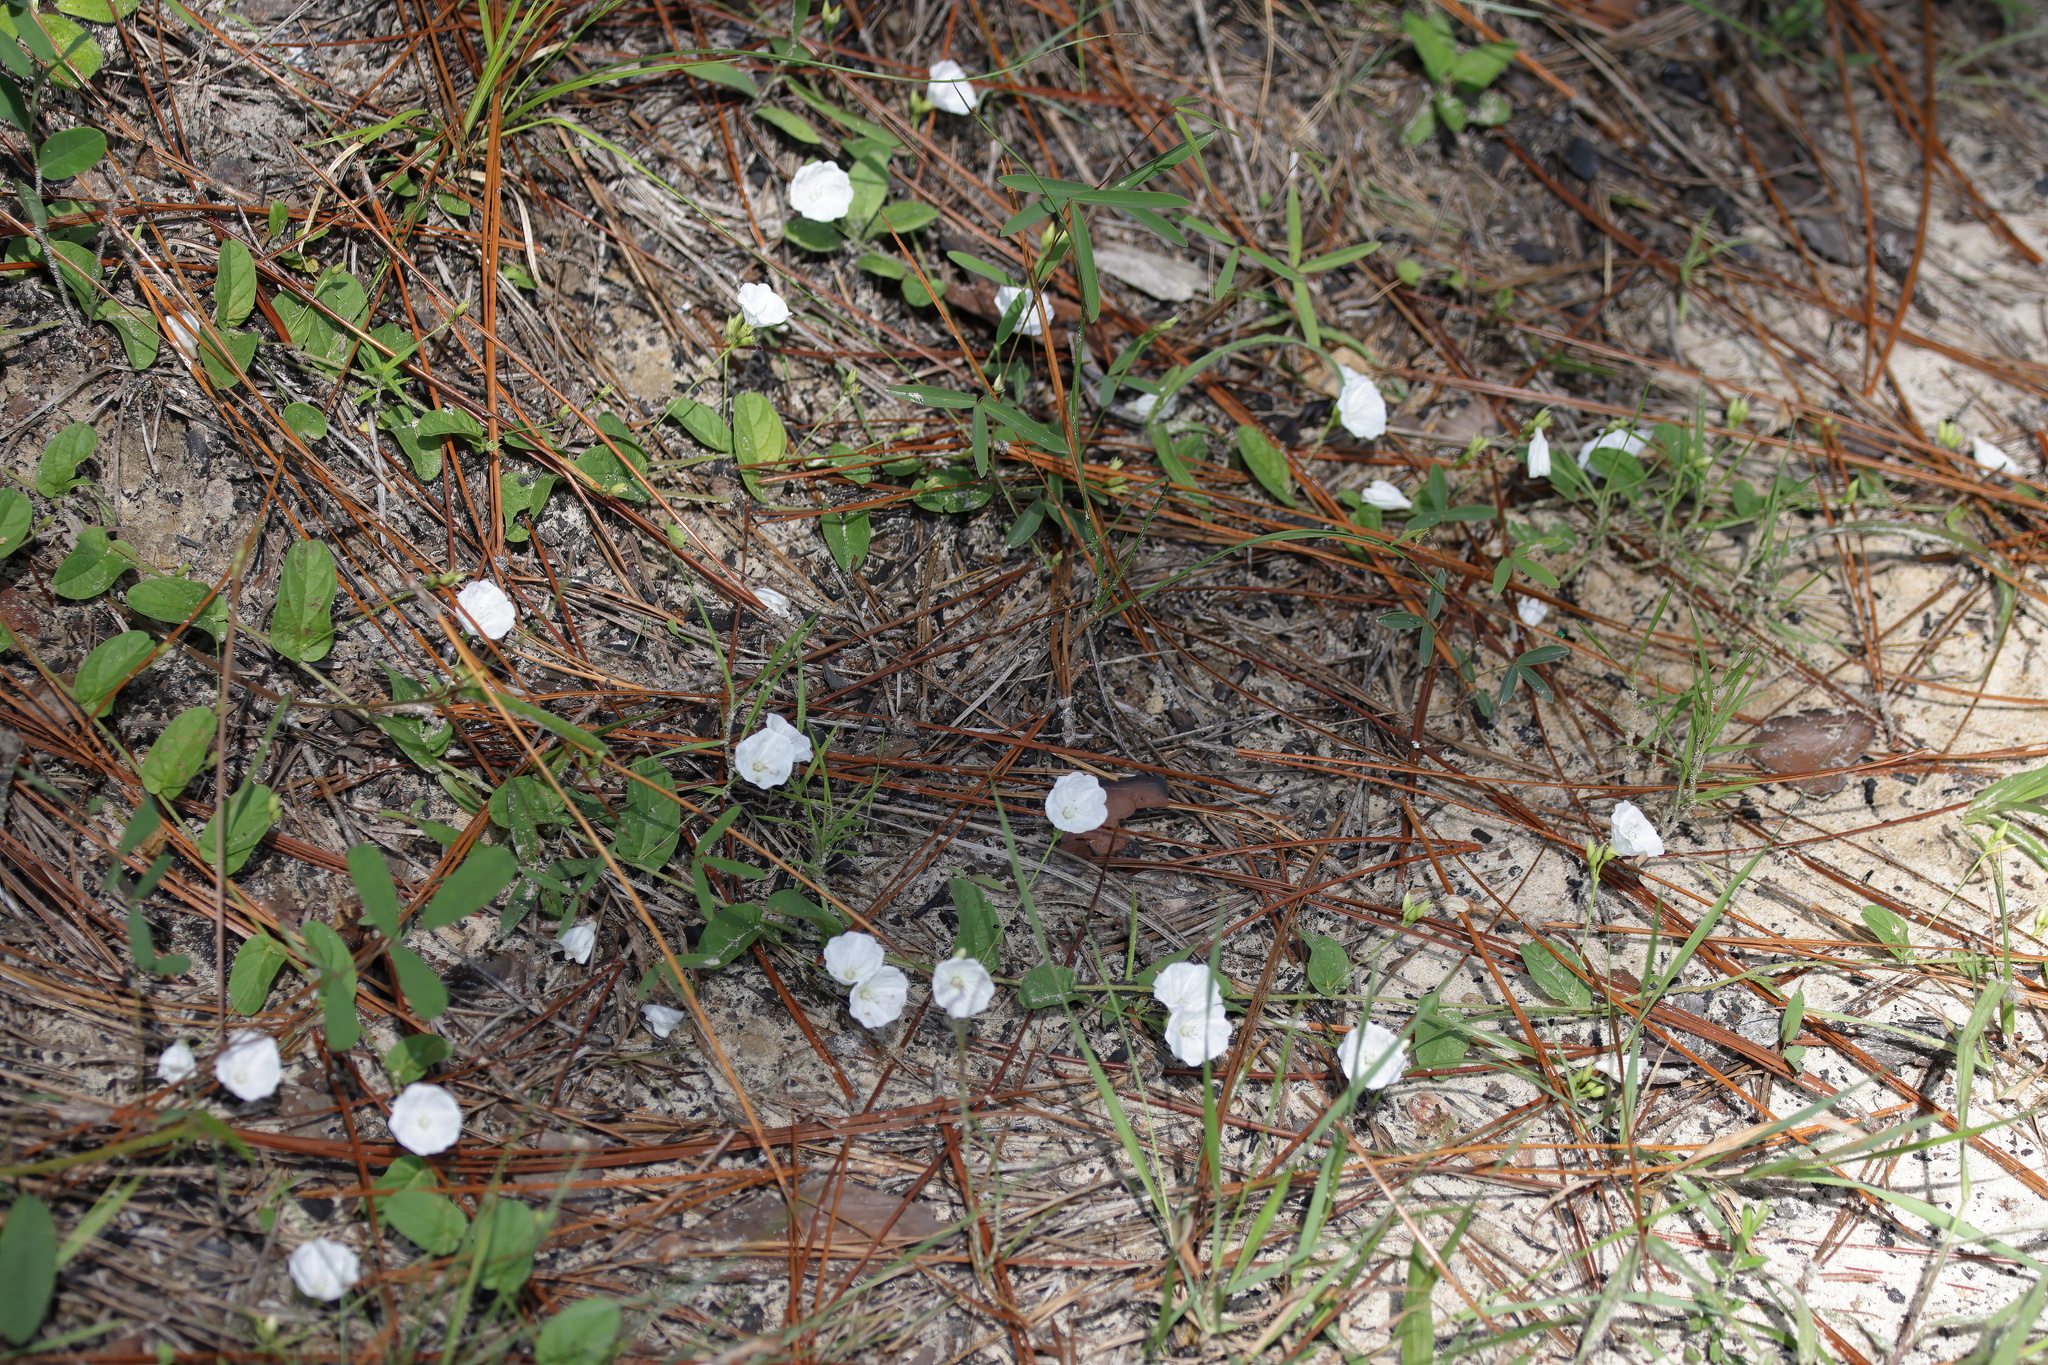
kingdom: Plantae
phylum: Tracheophyta
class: Magnoliopsida
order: Solanales
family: Convolvulaceae
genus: Stylisma
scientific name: Stylisma patens
